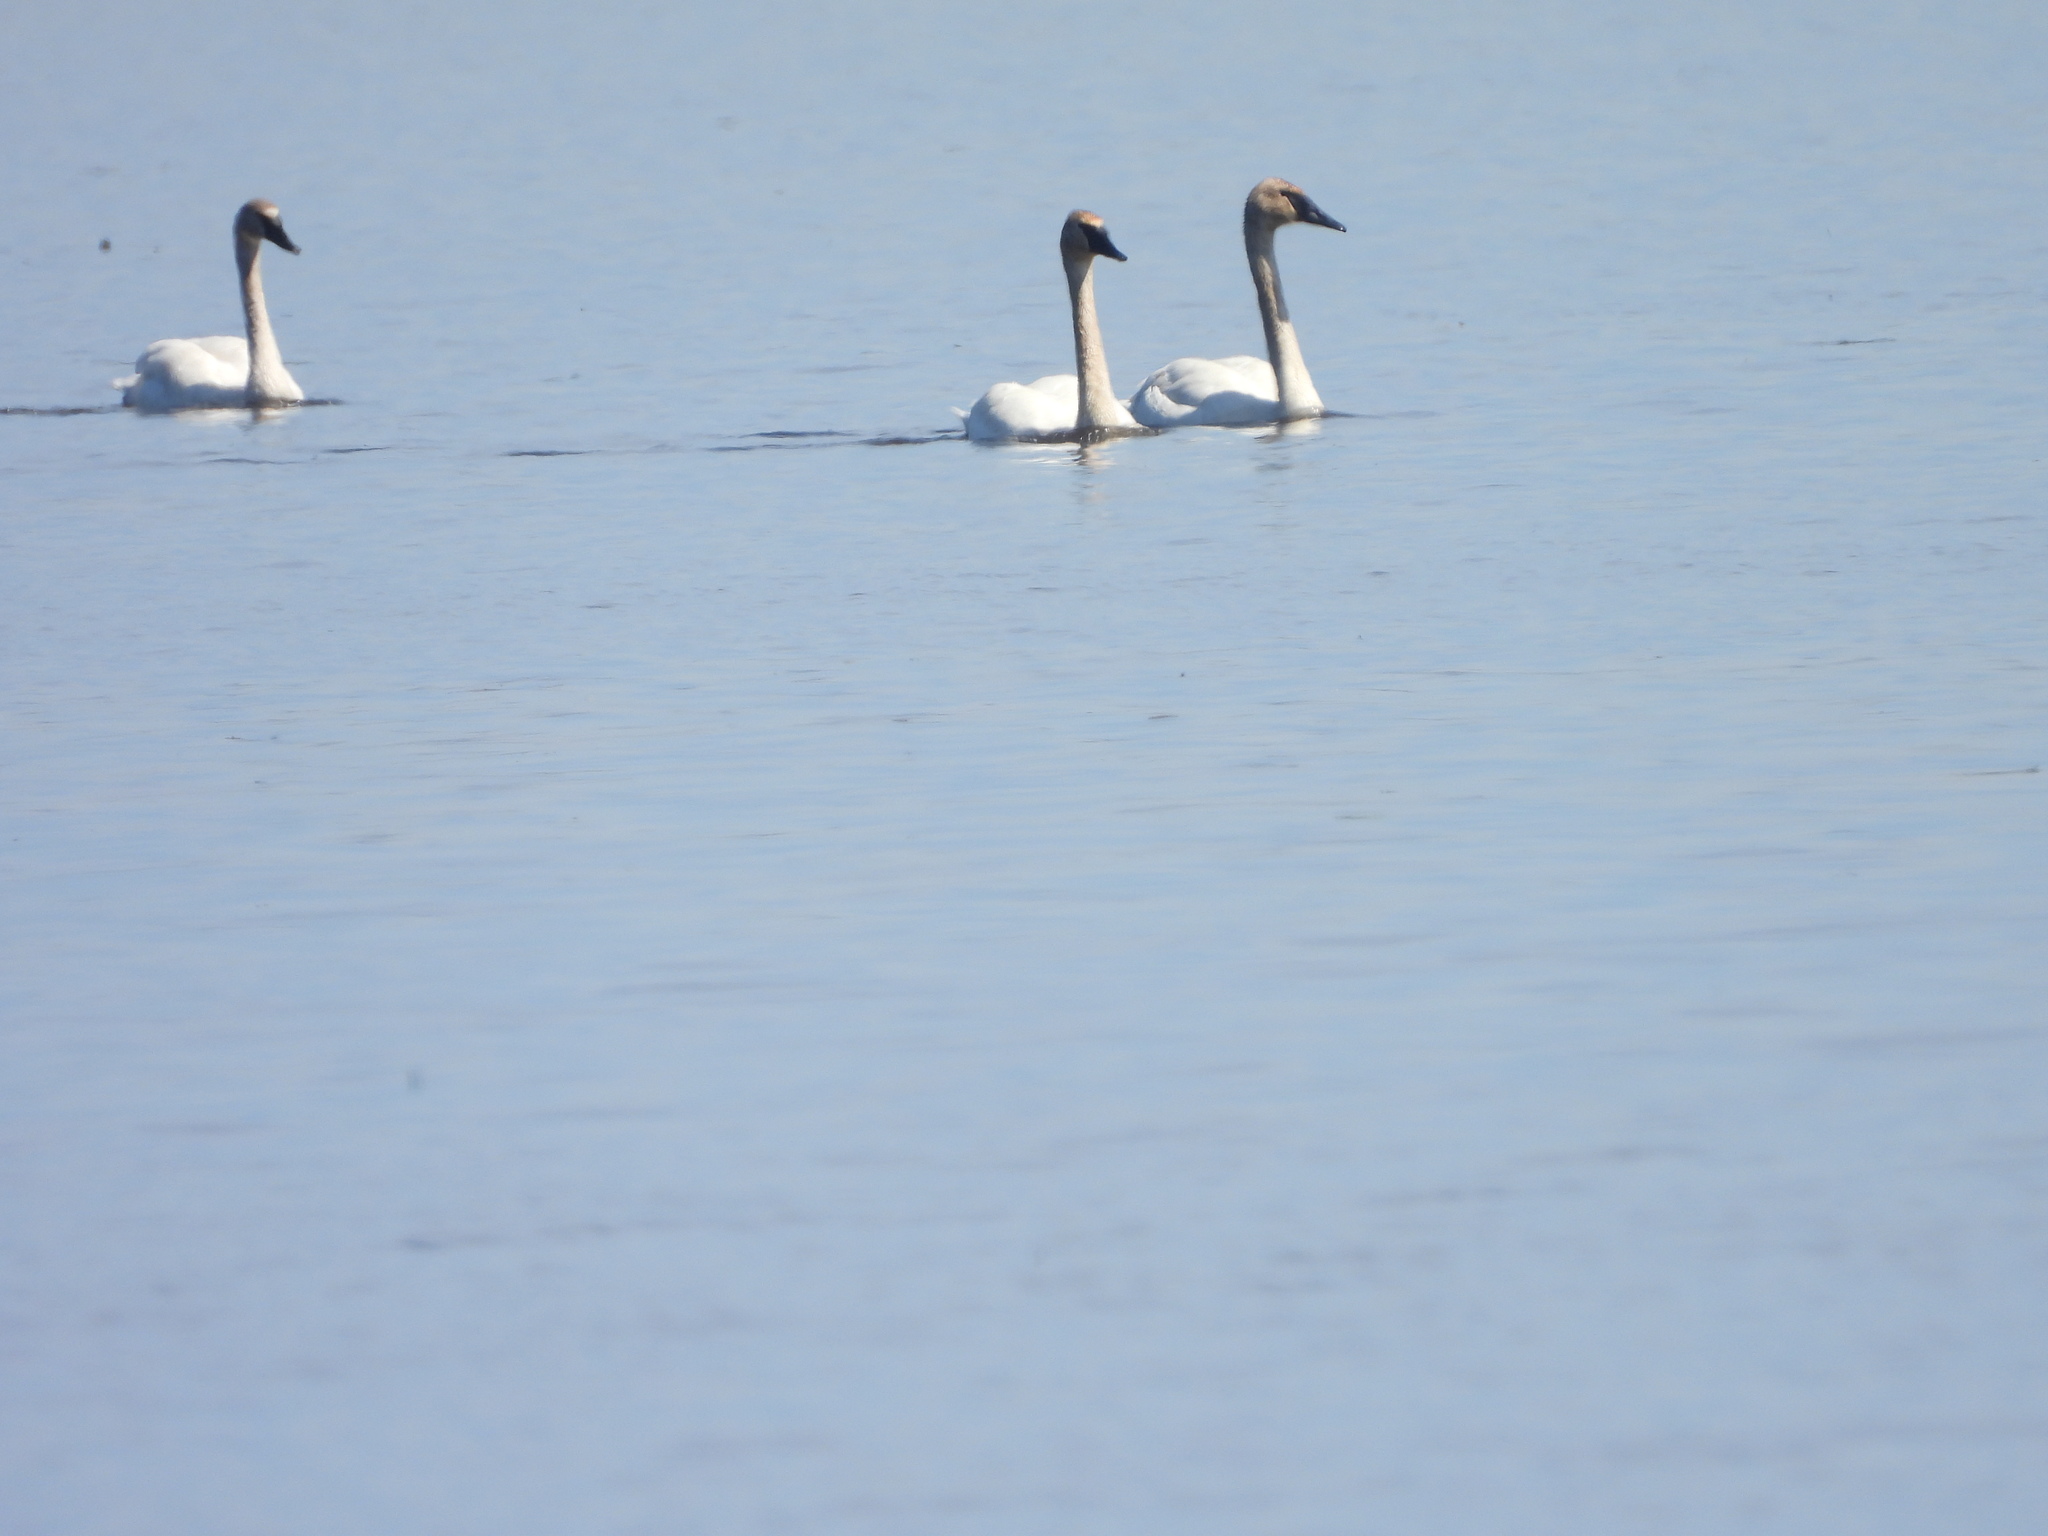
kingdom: Animalia
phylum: Chordata
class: Aves
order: Anseriformes
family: Anatidae
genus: Cygnus
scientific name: Cygnus buccinator
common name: Trumpeter swan
